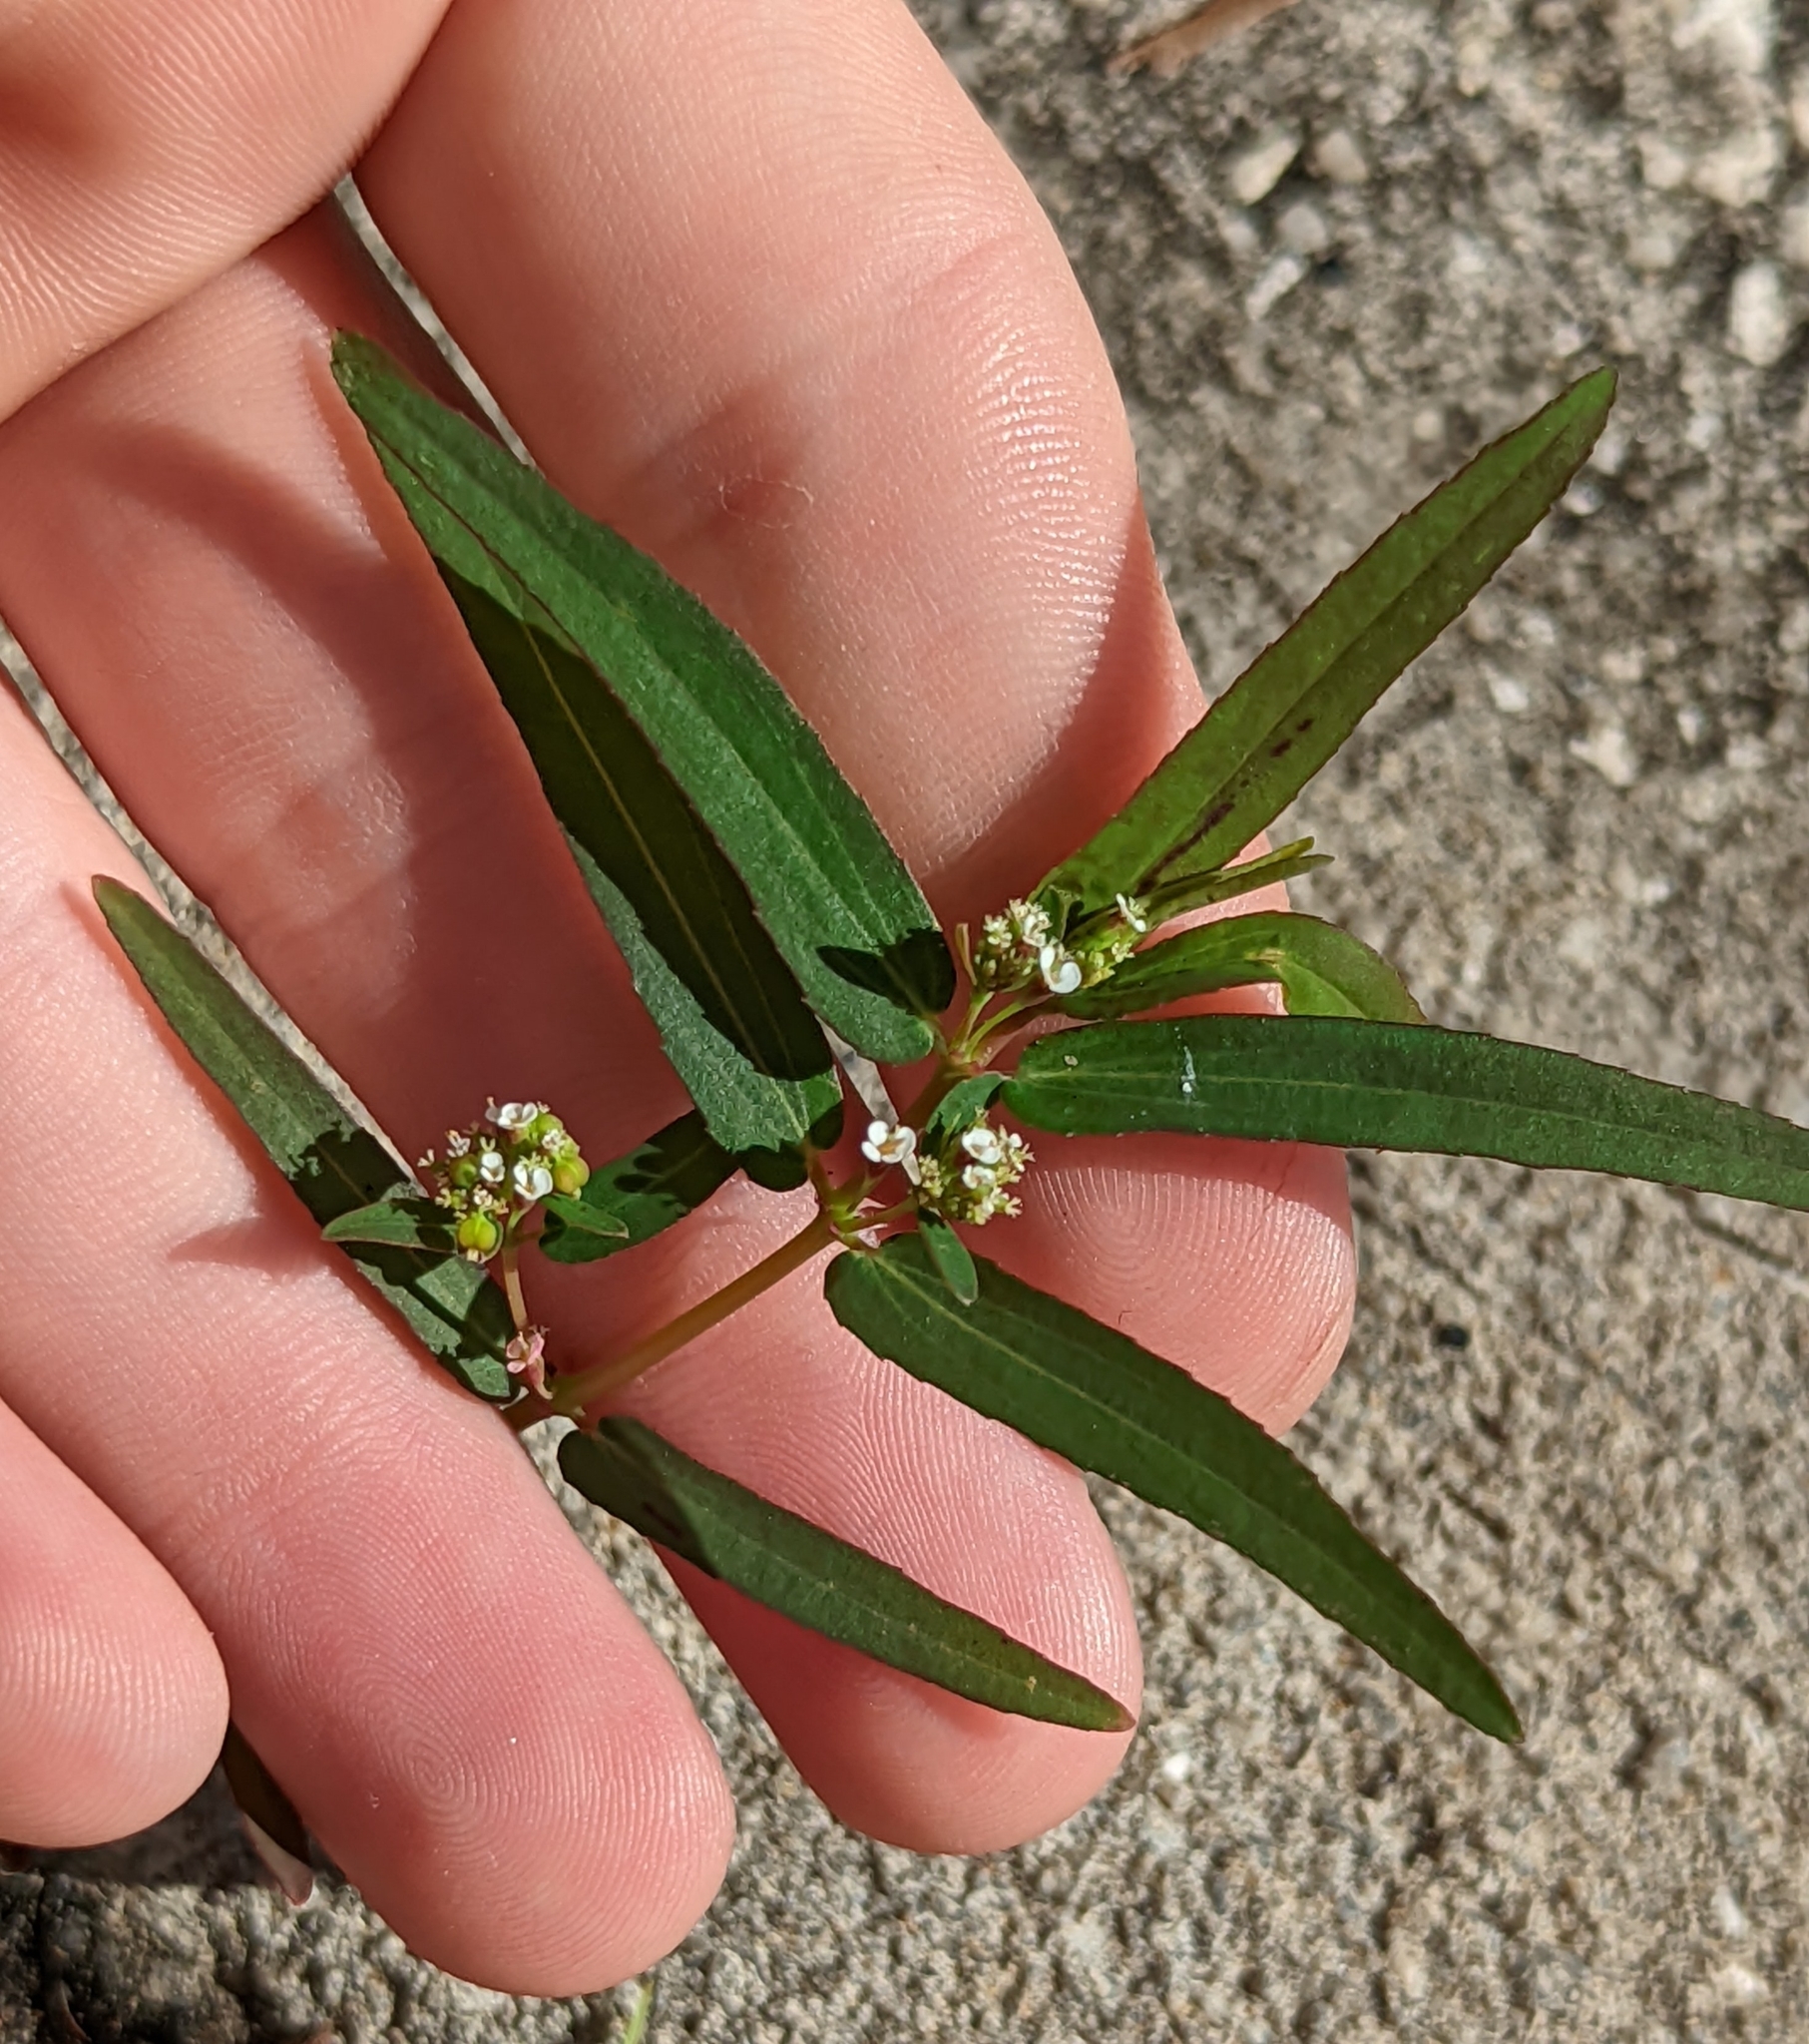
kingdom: Plantae
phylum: Tracheophyta
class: Magnoliopsida
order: Malpighiales
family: Euphorbiaceae
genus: Euphorbia
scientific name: Euphorbia hypericifolia
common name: Graceful sandmat
